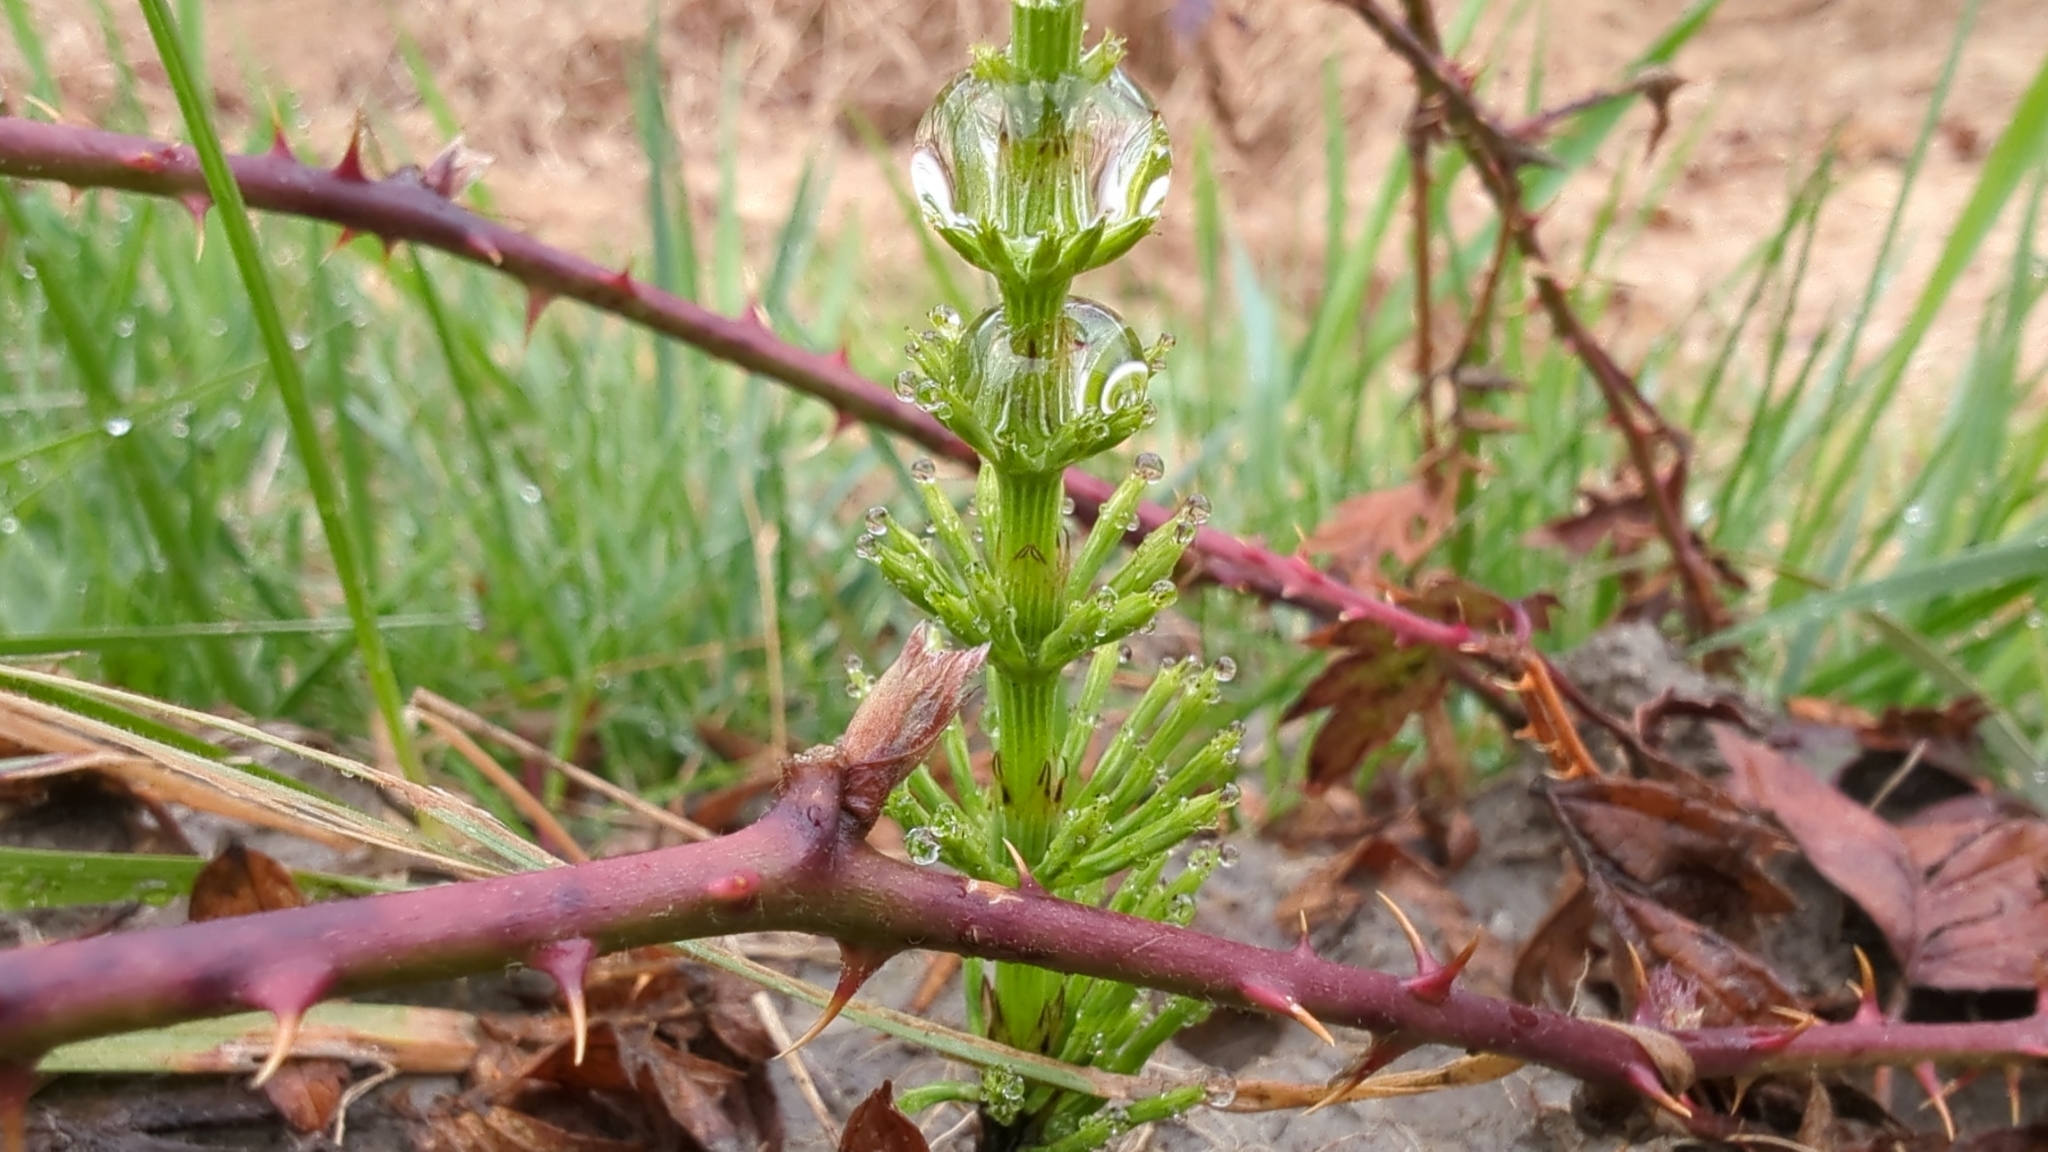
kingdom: Plantae
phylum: Tracheophyta
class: Polypodiopsida
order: Equisetales
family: Equisetaceae
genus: Equisetum
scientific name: Equisetum arvense
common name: Field horsetail
